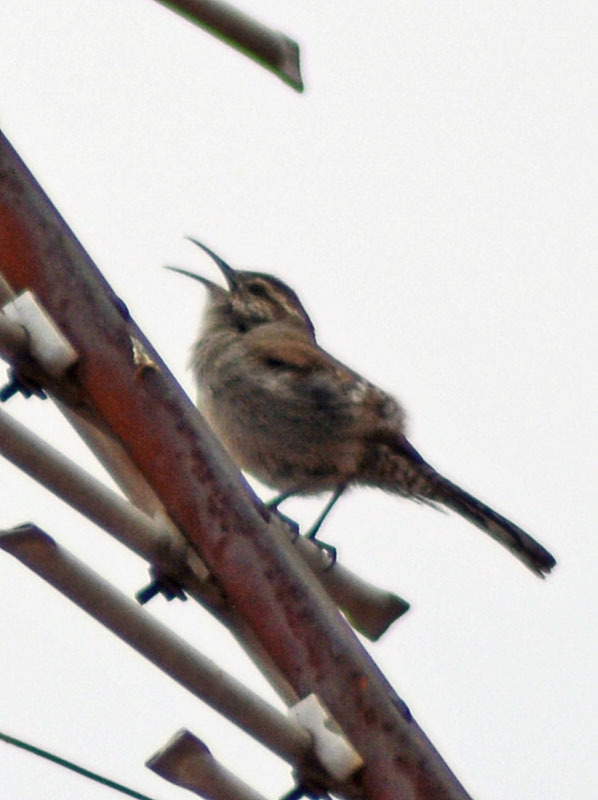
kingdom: Animalia
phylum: Chordata
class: Aves
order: Passeriformes
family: Troglodytidae
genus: Thryomanes
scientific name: Thryomanes bewickii
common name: Bewick's wren
